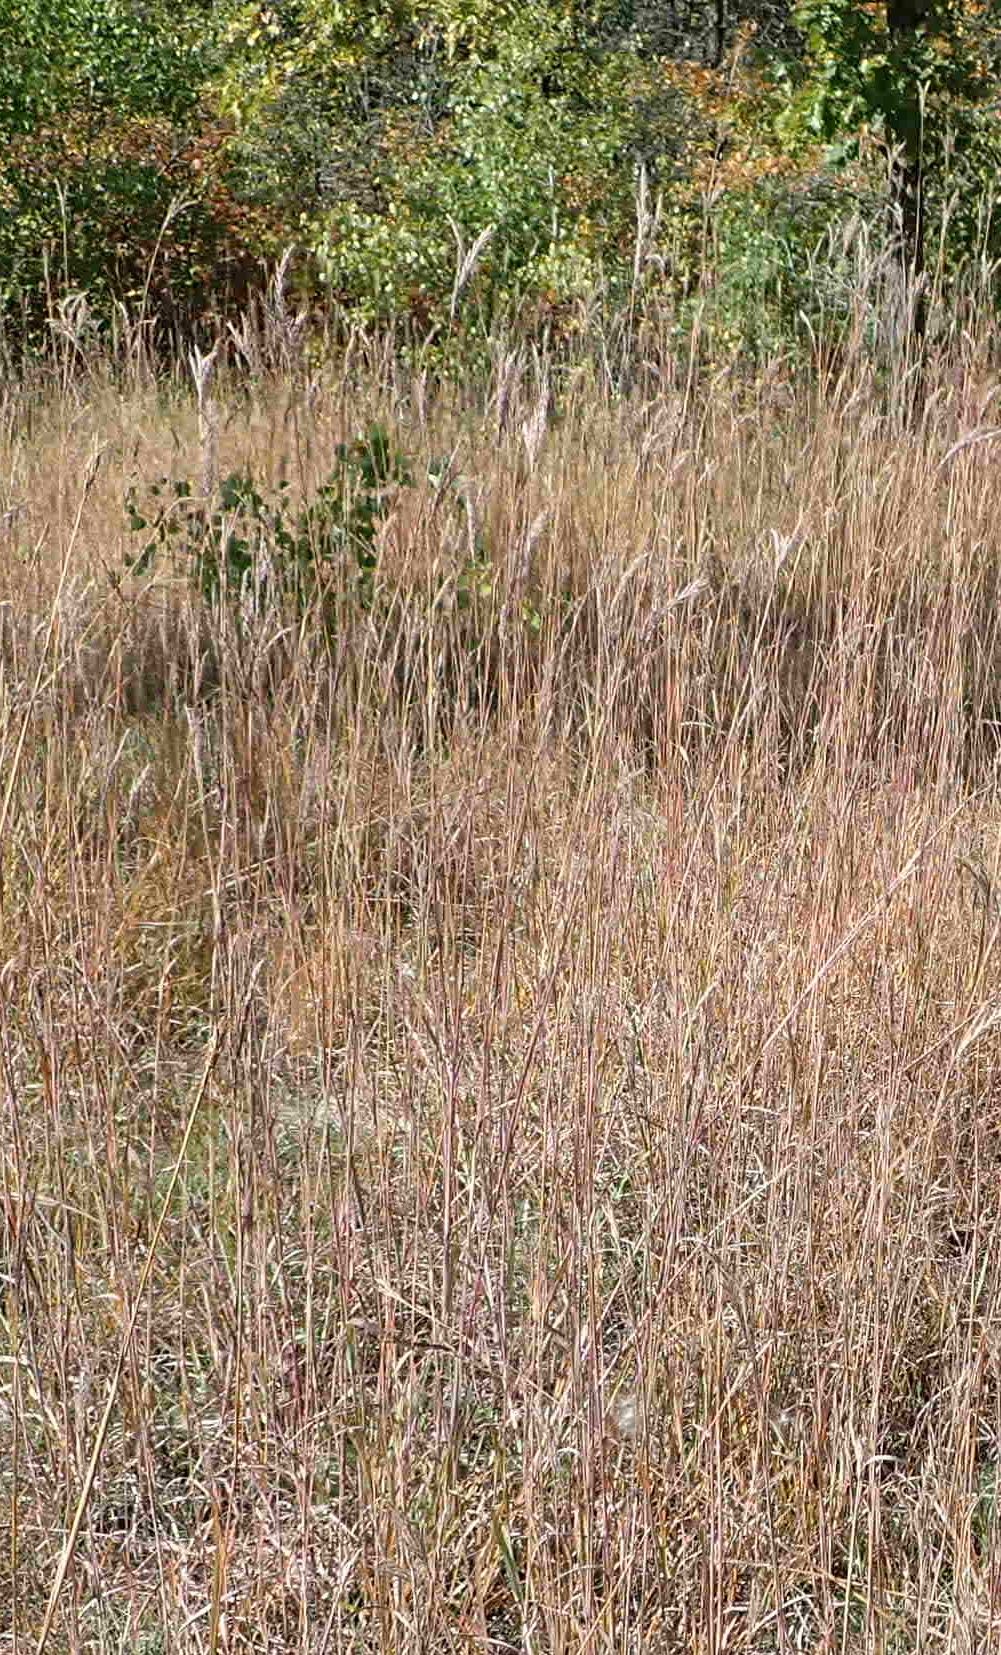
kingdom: Plantae
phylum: Tracheophyta
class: Liliopsida
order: Poales
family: Poaceae
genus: Andropogon
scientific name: Andropogon gerardi
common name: Big bluestem
